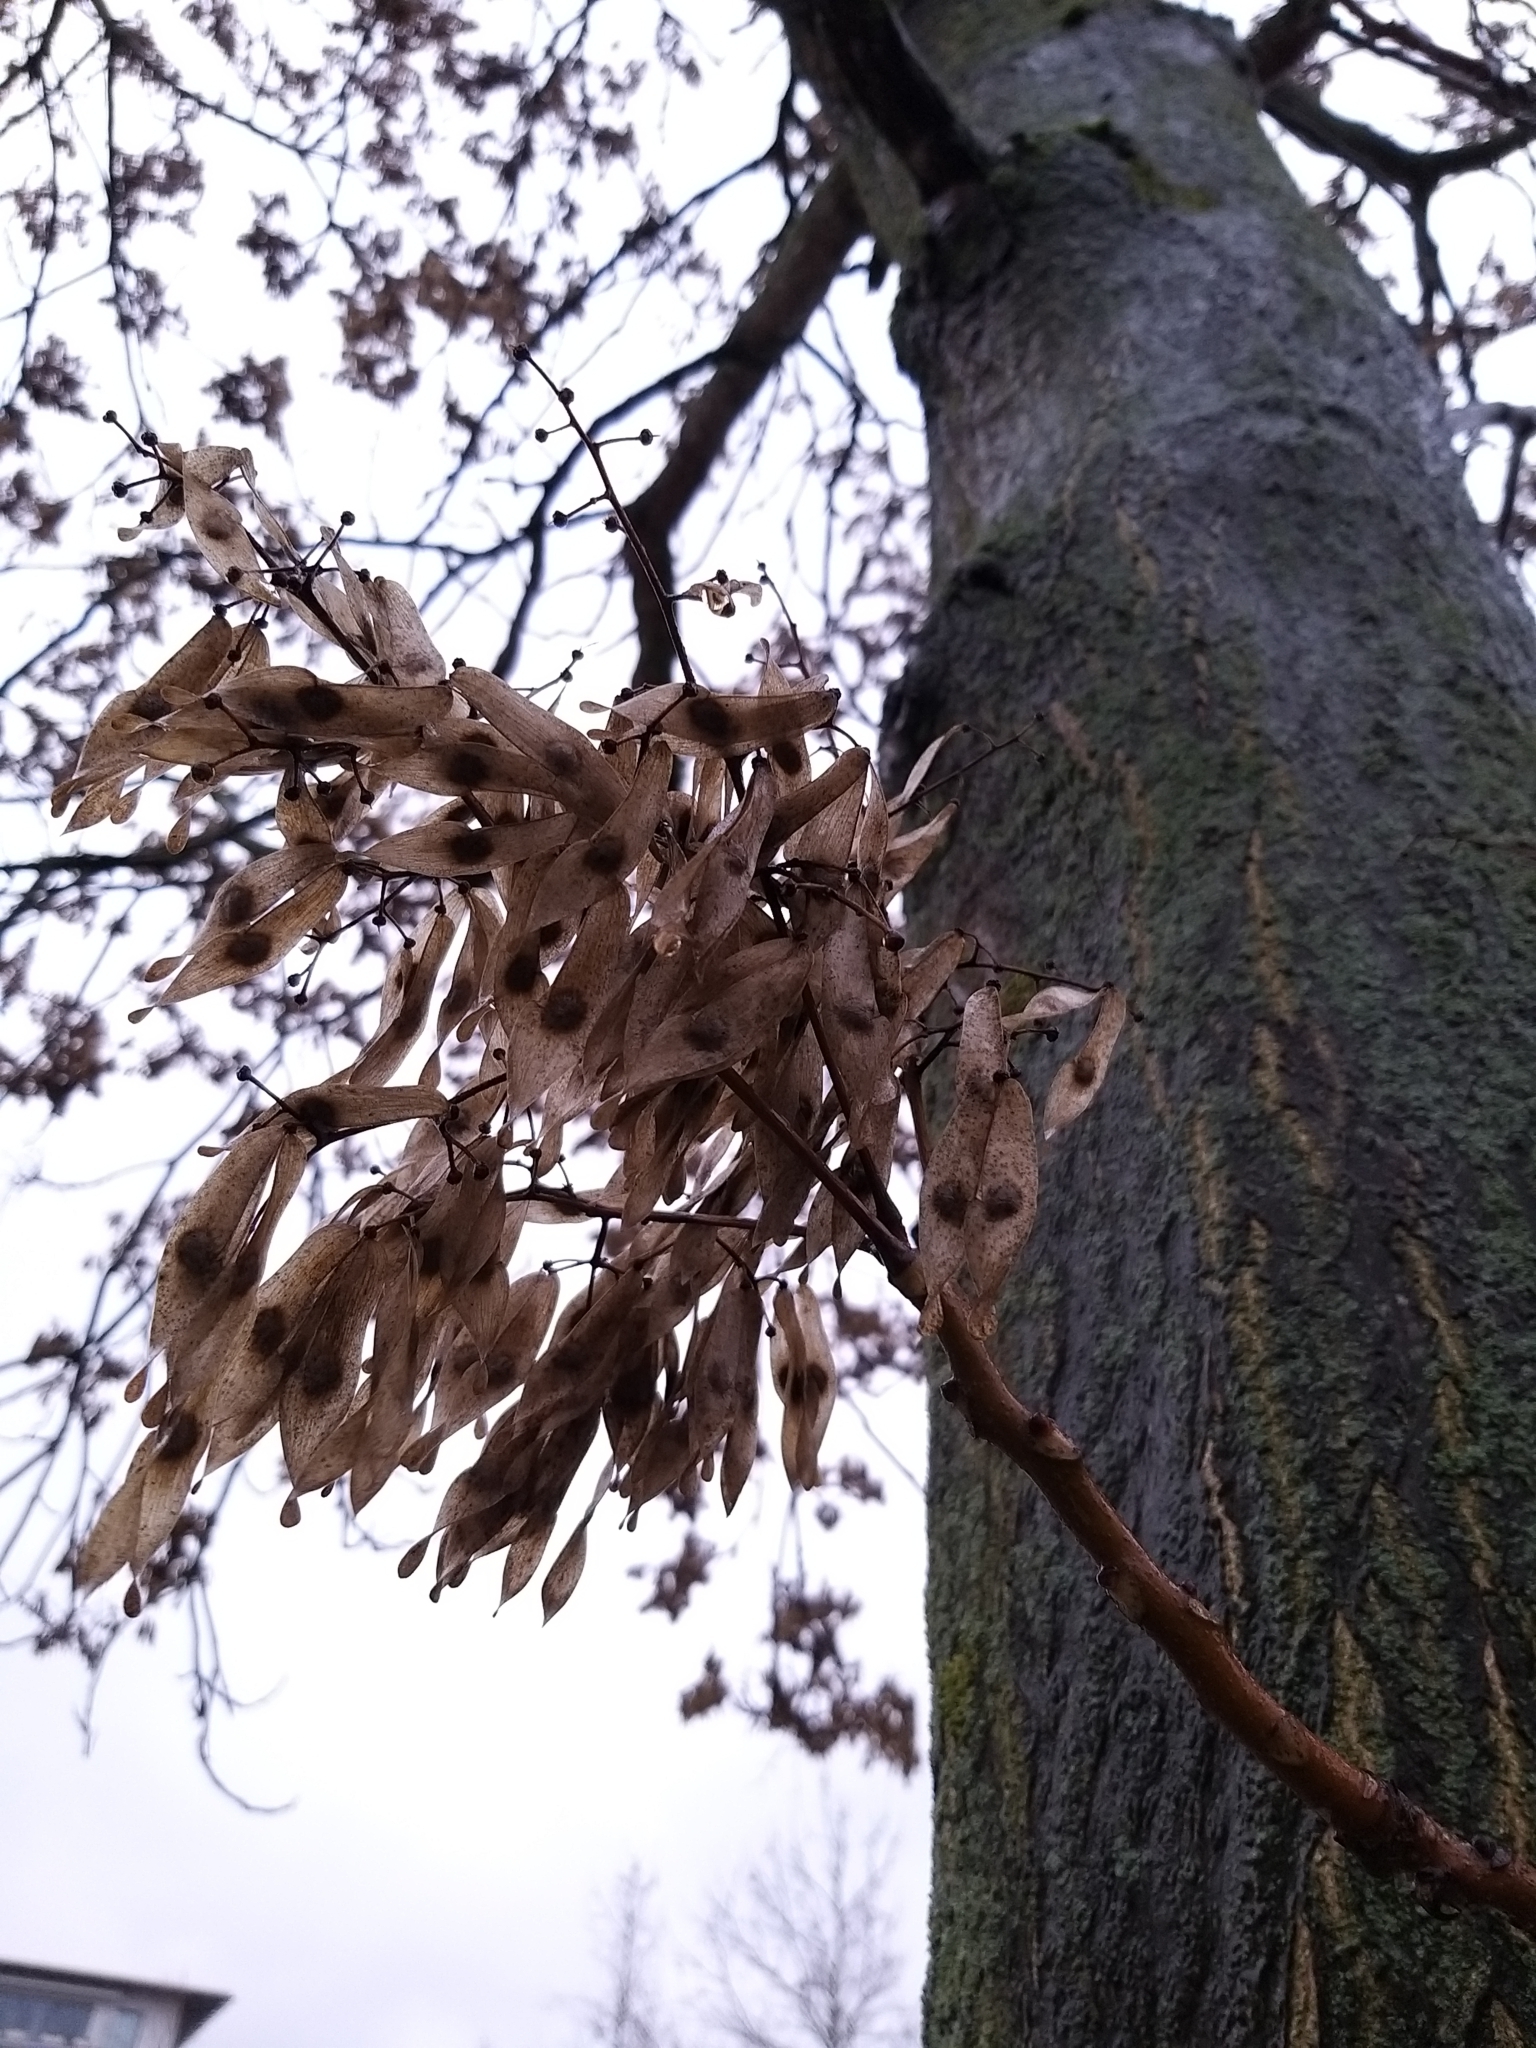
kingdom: Plantae
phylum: Tracheophyta
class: Magnoliopsida
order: Sapindales
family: Simaroubaceae
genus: Ailanthus
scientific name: Ailanthus altissima
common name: Tree-of-heaven
